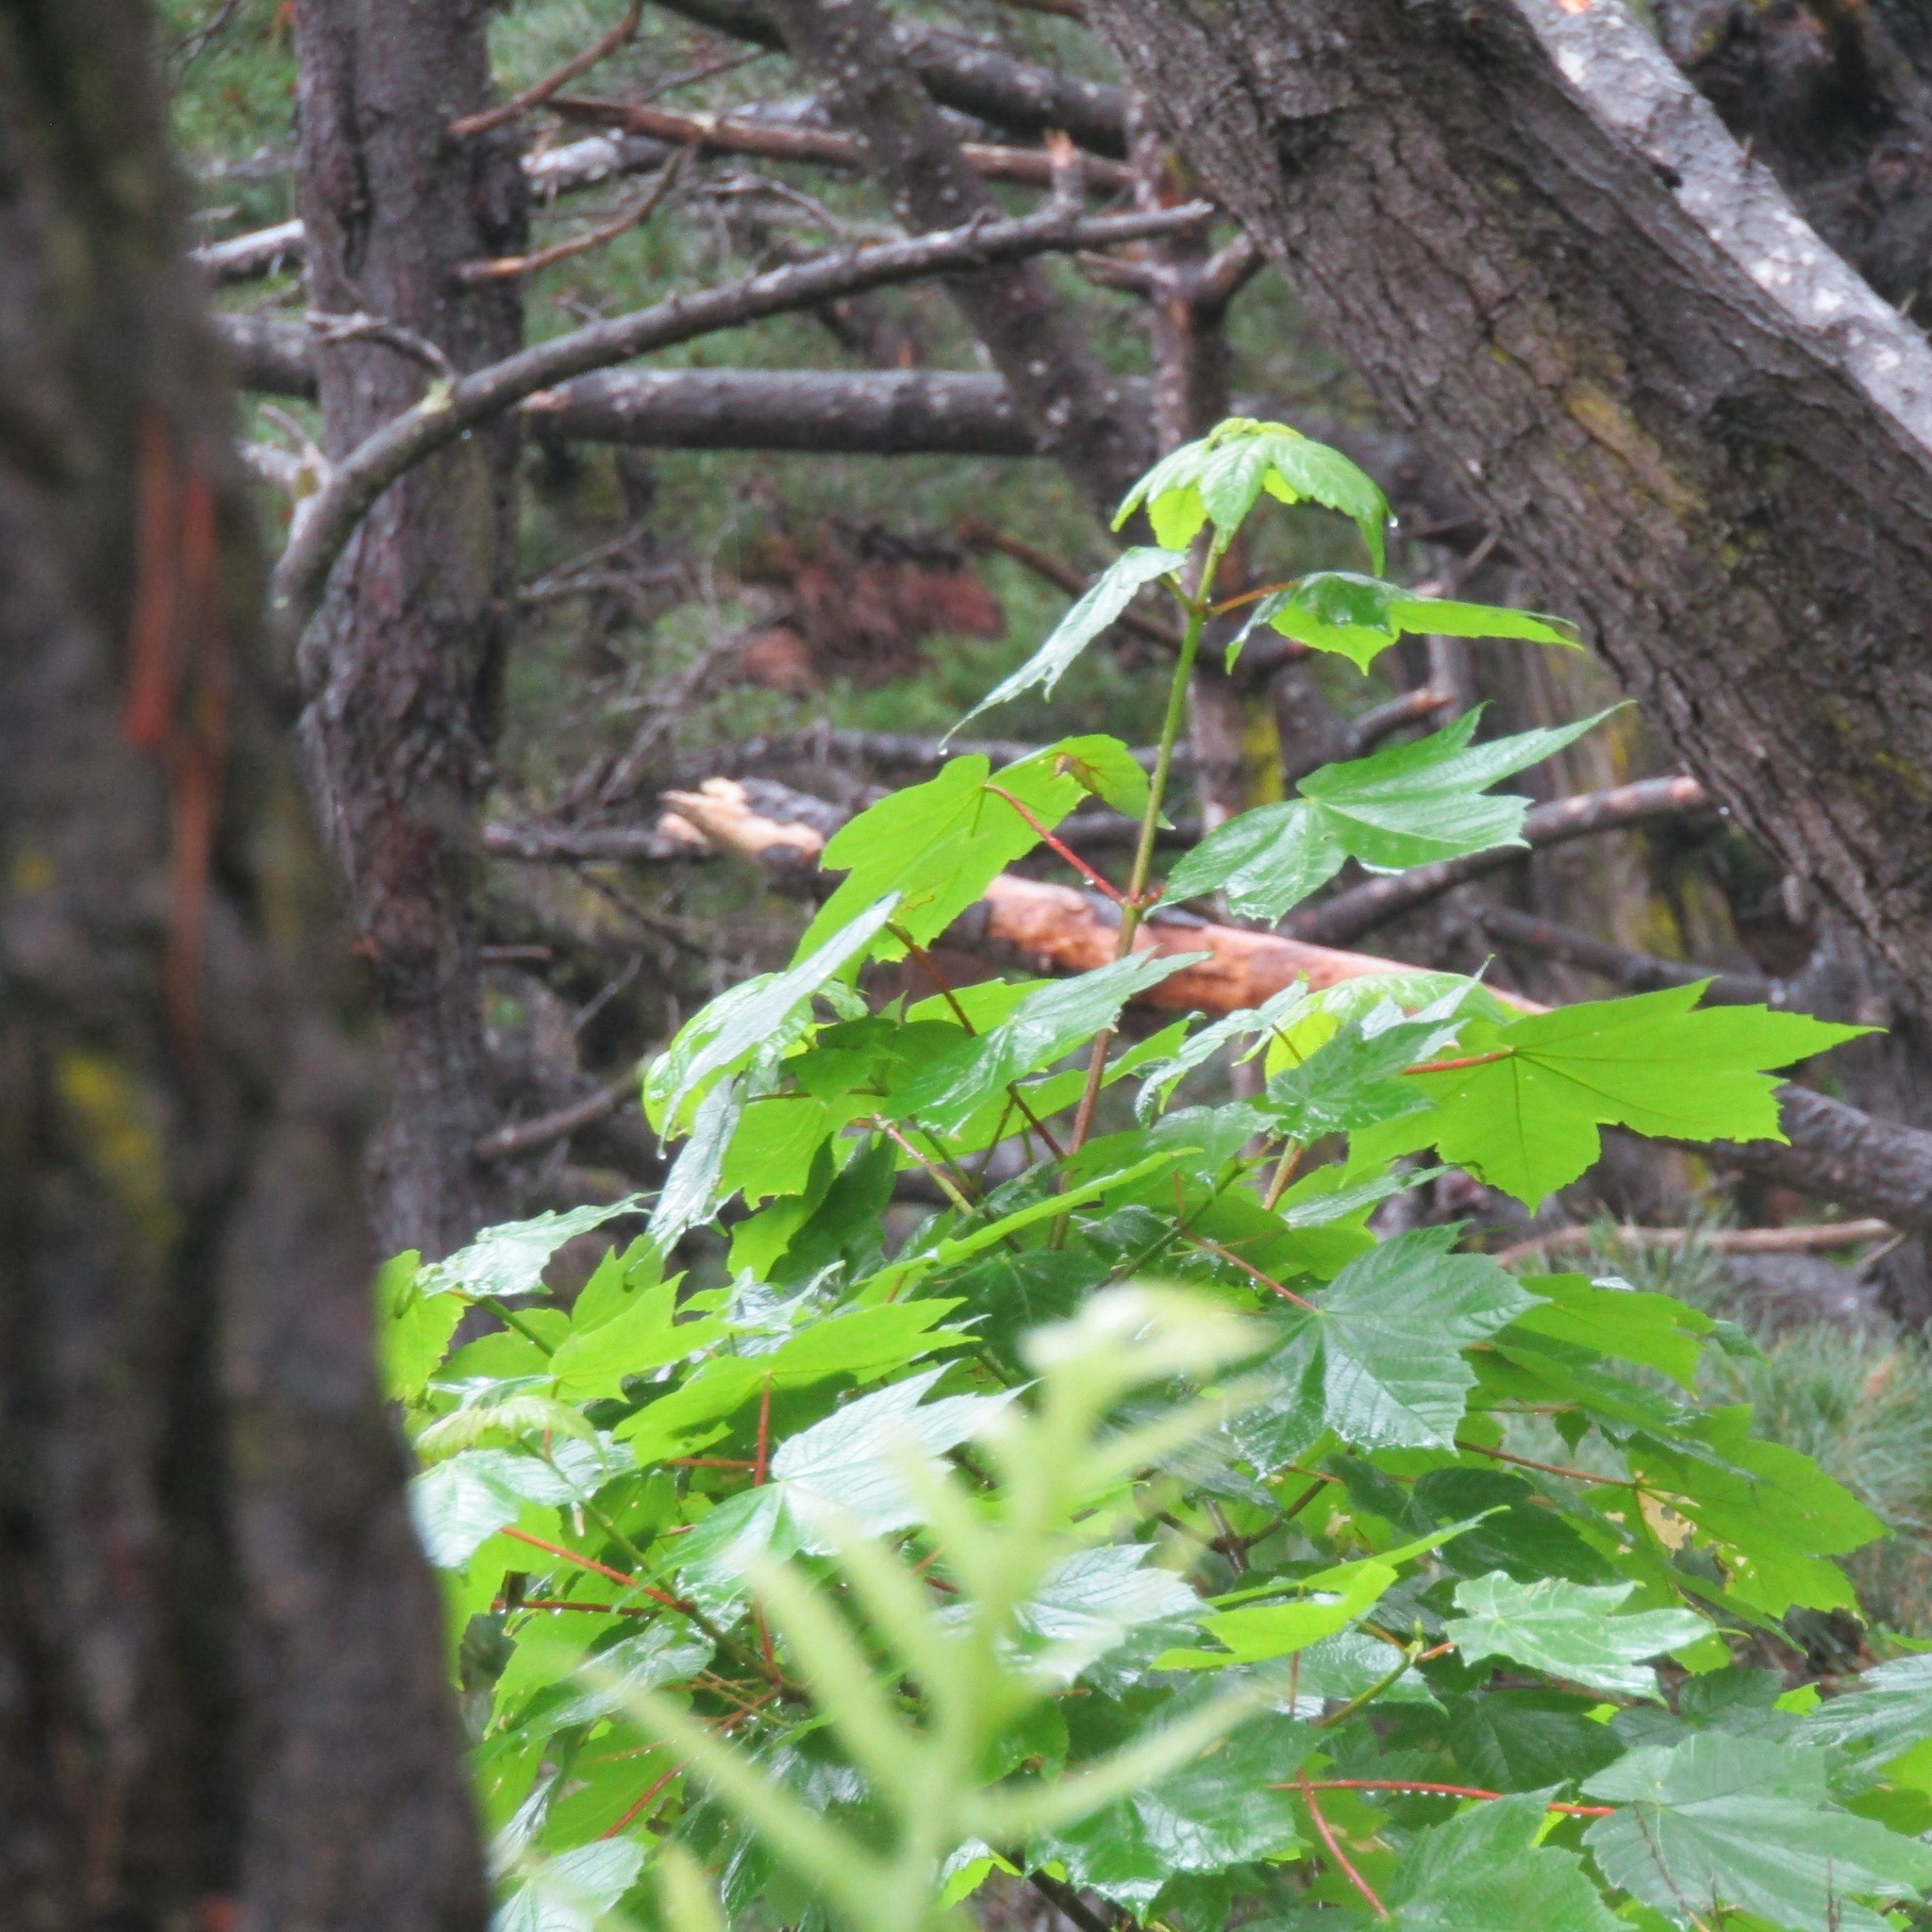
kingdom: Plantae
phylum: Tracheophyta
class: Magnoliopsida
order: Sapindales
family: Sapindaceae
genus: Acer
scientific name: Acer pseudoplatanus
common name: Sycamore
